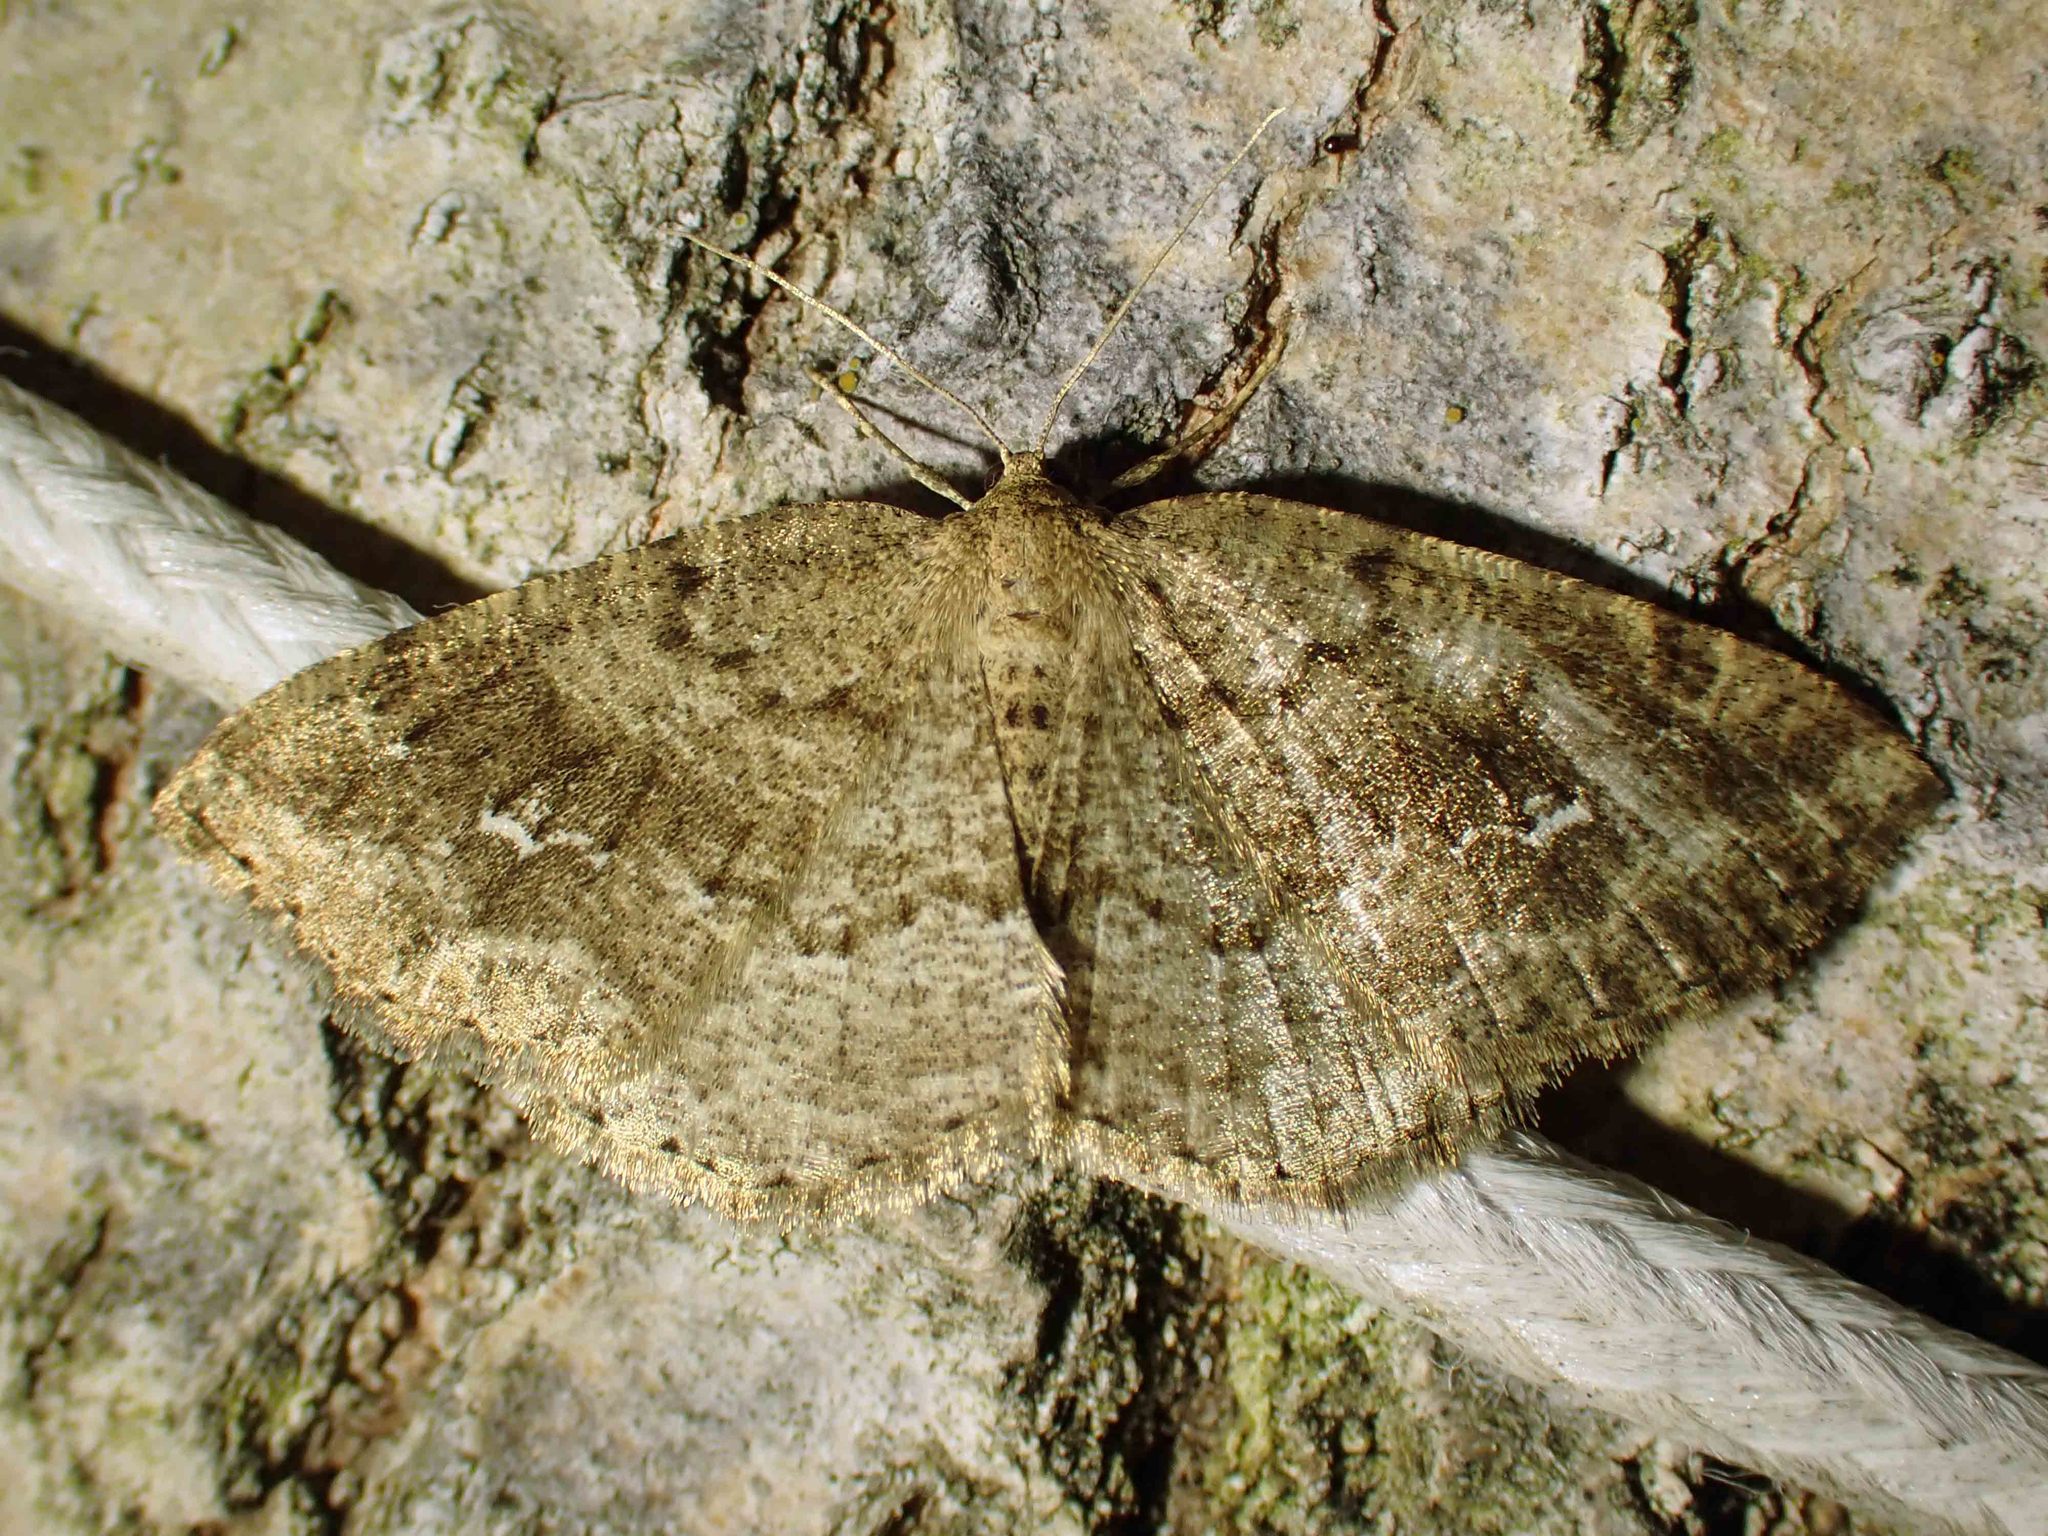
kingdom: Animalia
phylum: Arthropoda
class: Insecta
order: Lepidoptera
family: Geometridae
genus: Homochlodes
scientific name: Homochlodes fritillaria
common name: Pale homochlodes
